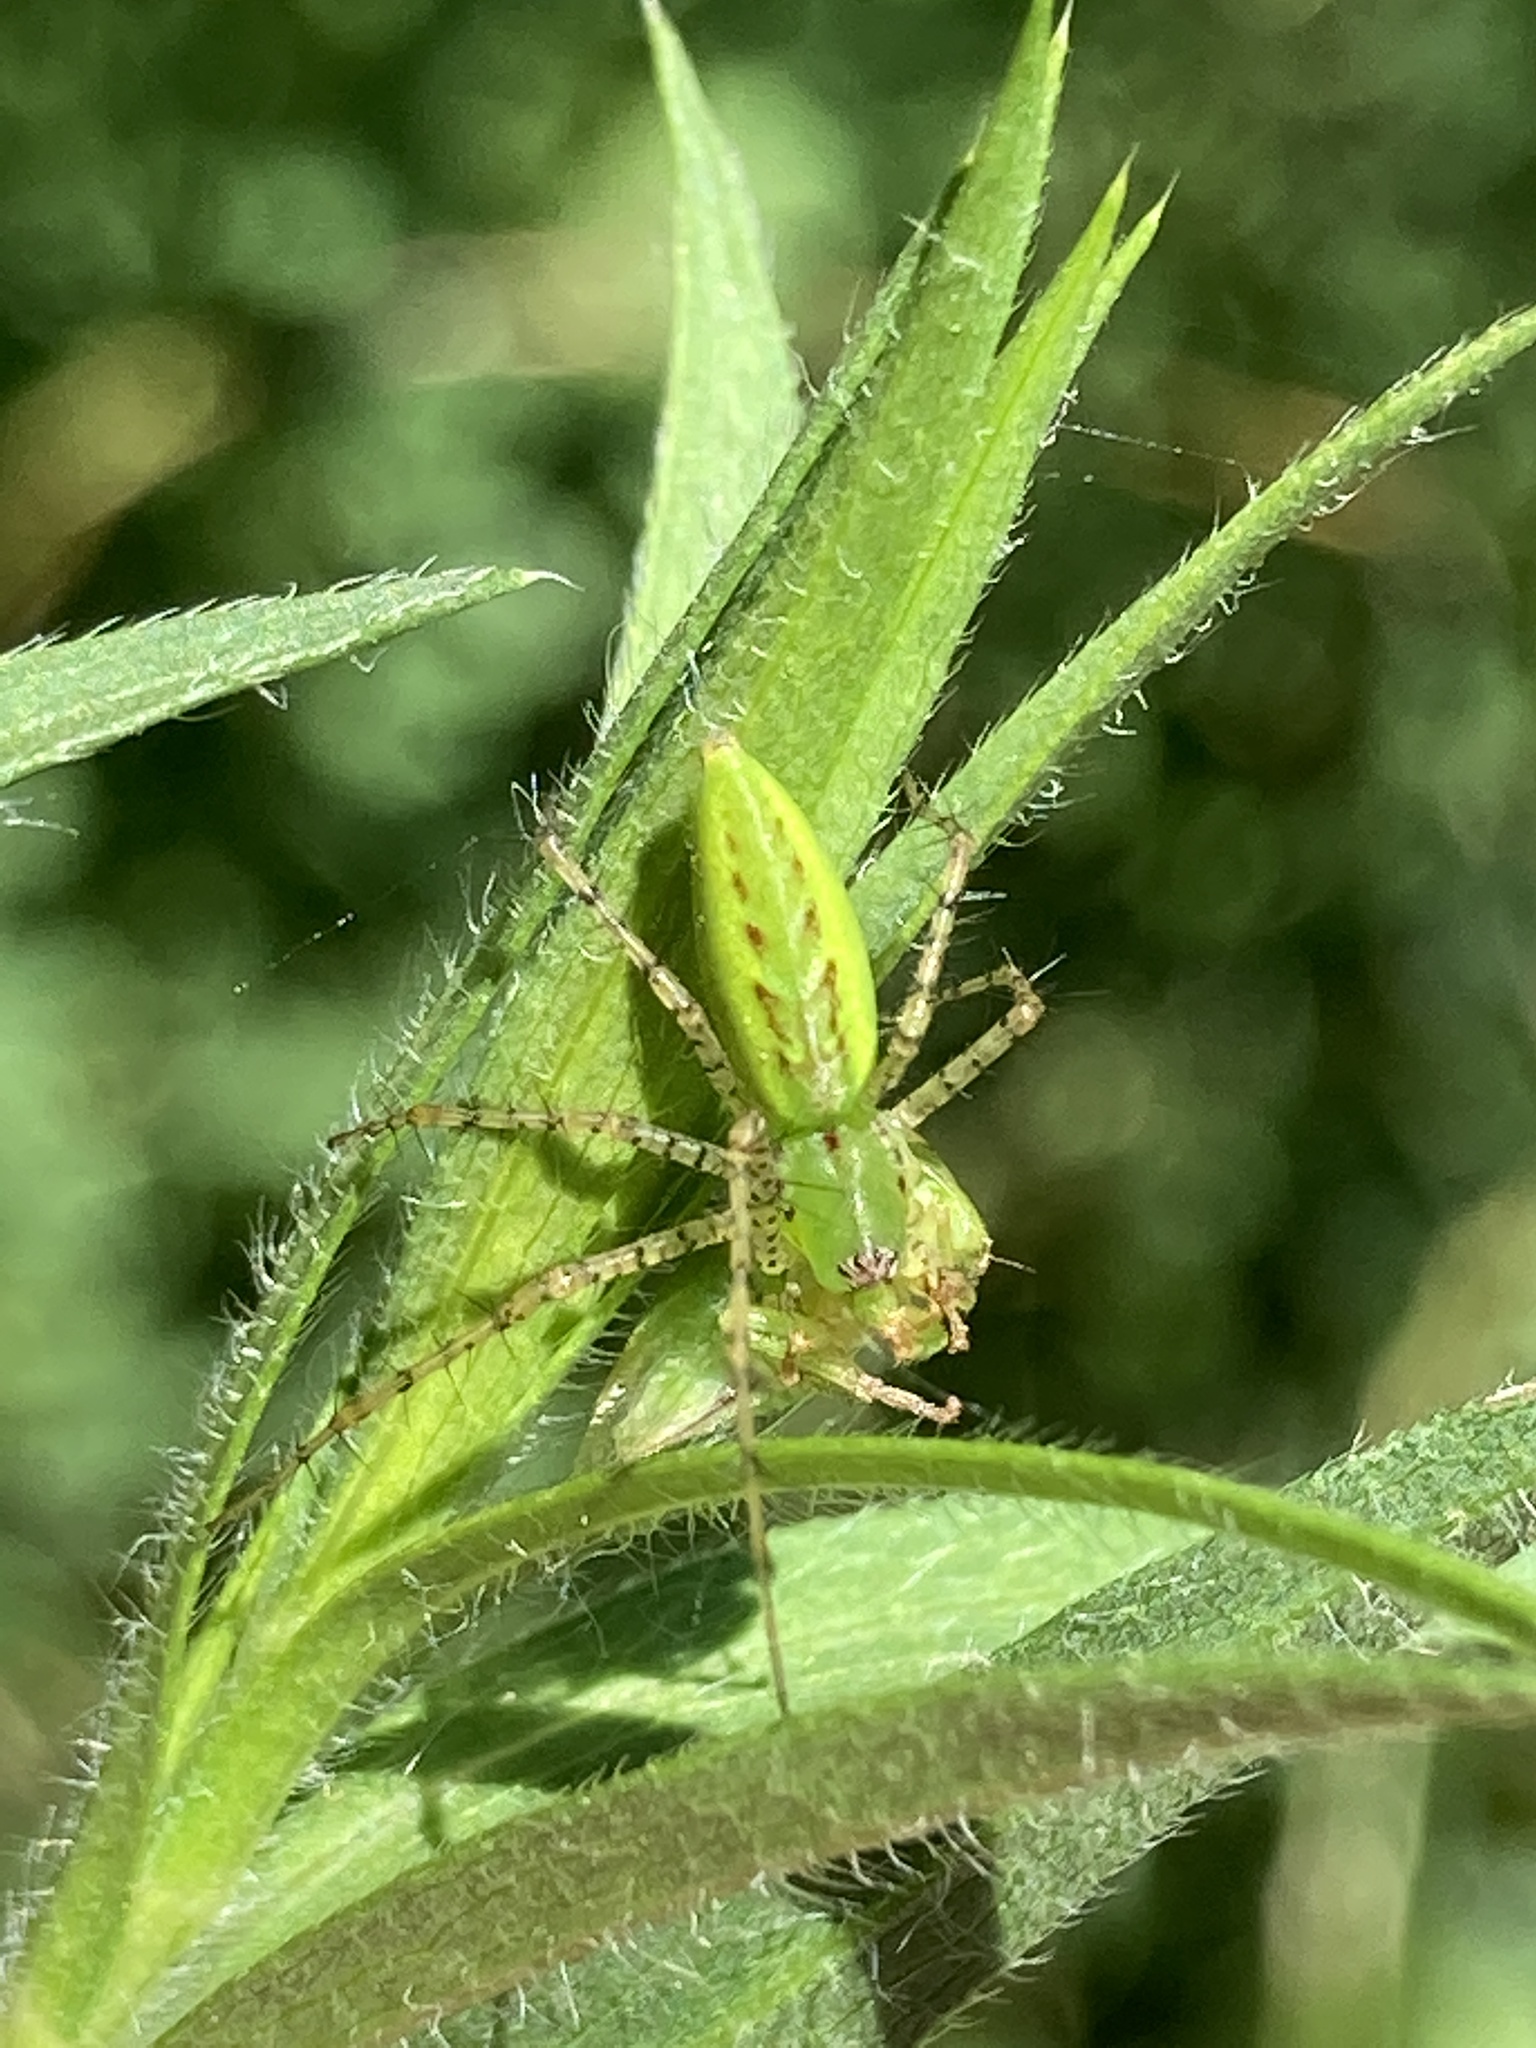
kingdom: Animalia
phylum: Arthropoda
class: Arachnida
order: Araneae
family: Oxyopidae
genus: Peucetia
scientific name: Peucetia viridans
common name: Lynx spiders
